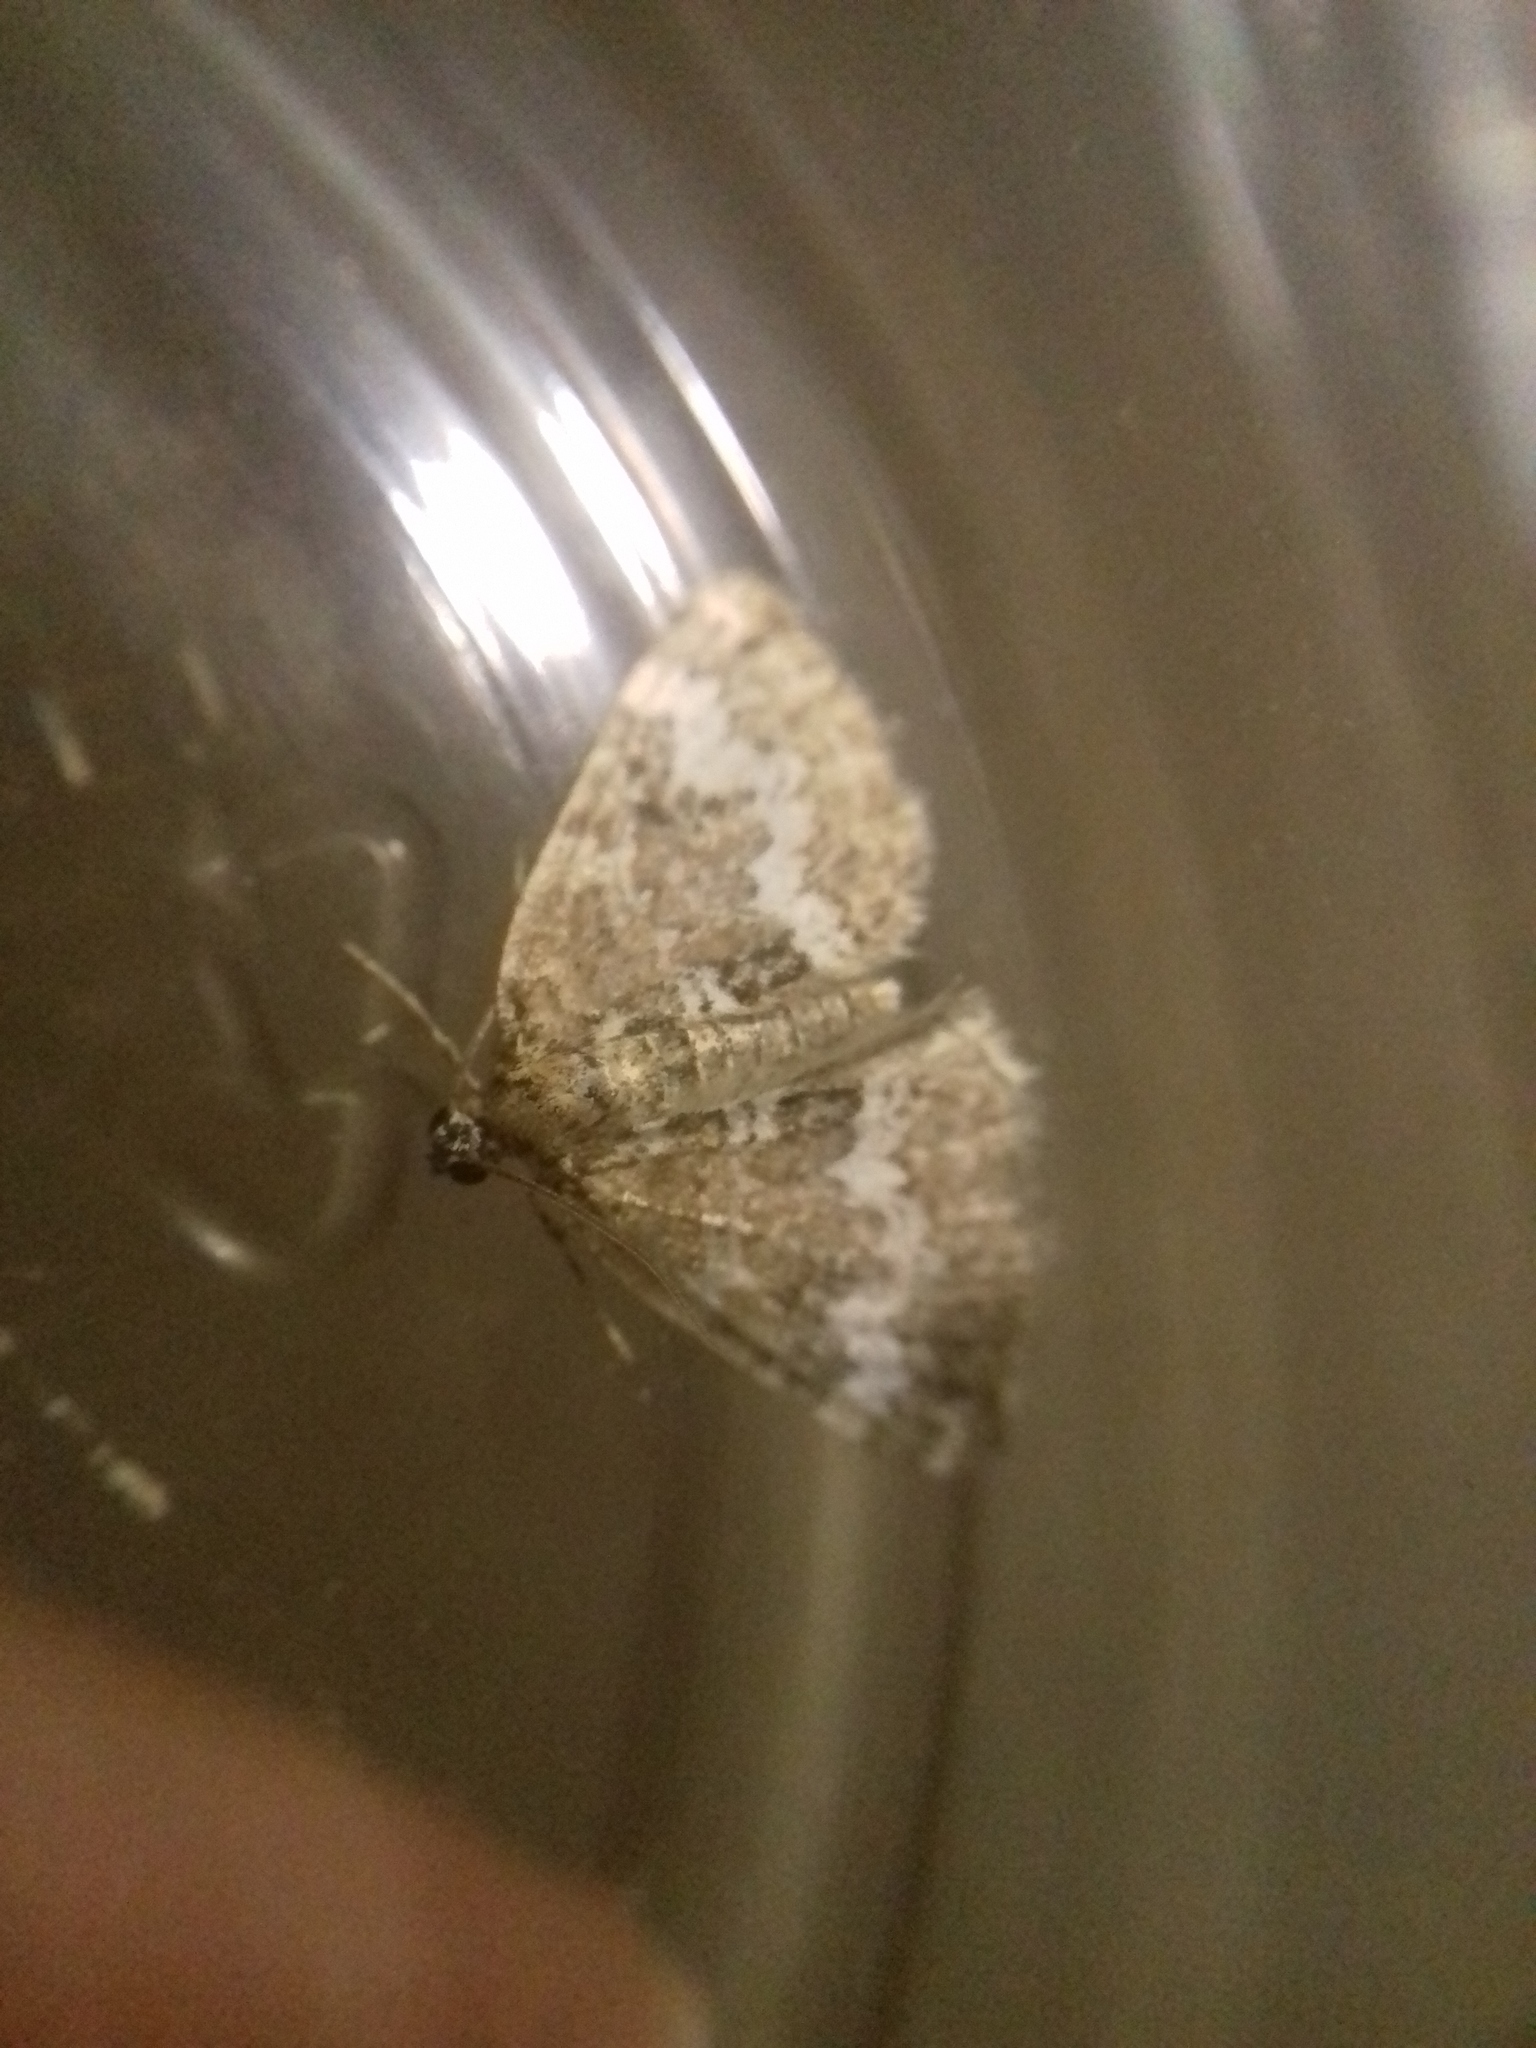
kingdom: Animalia
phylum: Arthropoda
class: Insecta
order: Lepidoptera
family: Geometridae
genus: Perizoma
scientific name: Perizoma alchemillata
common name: Small rivulet
